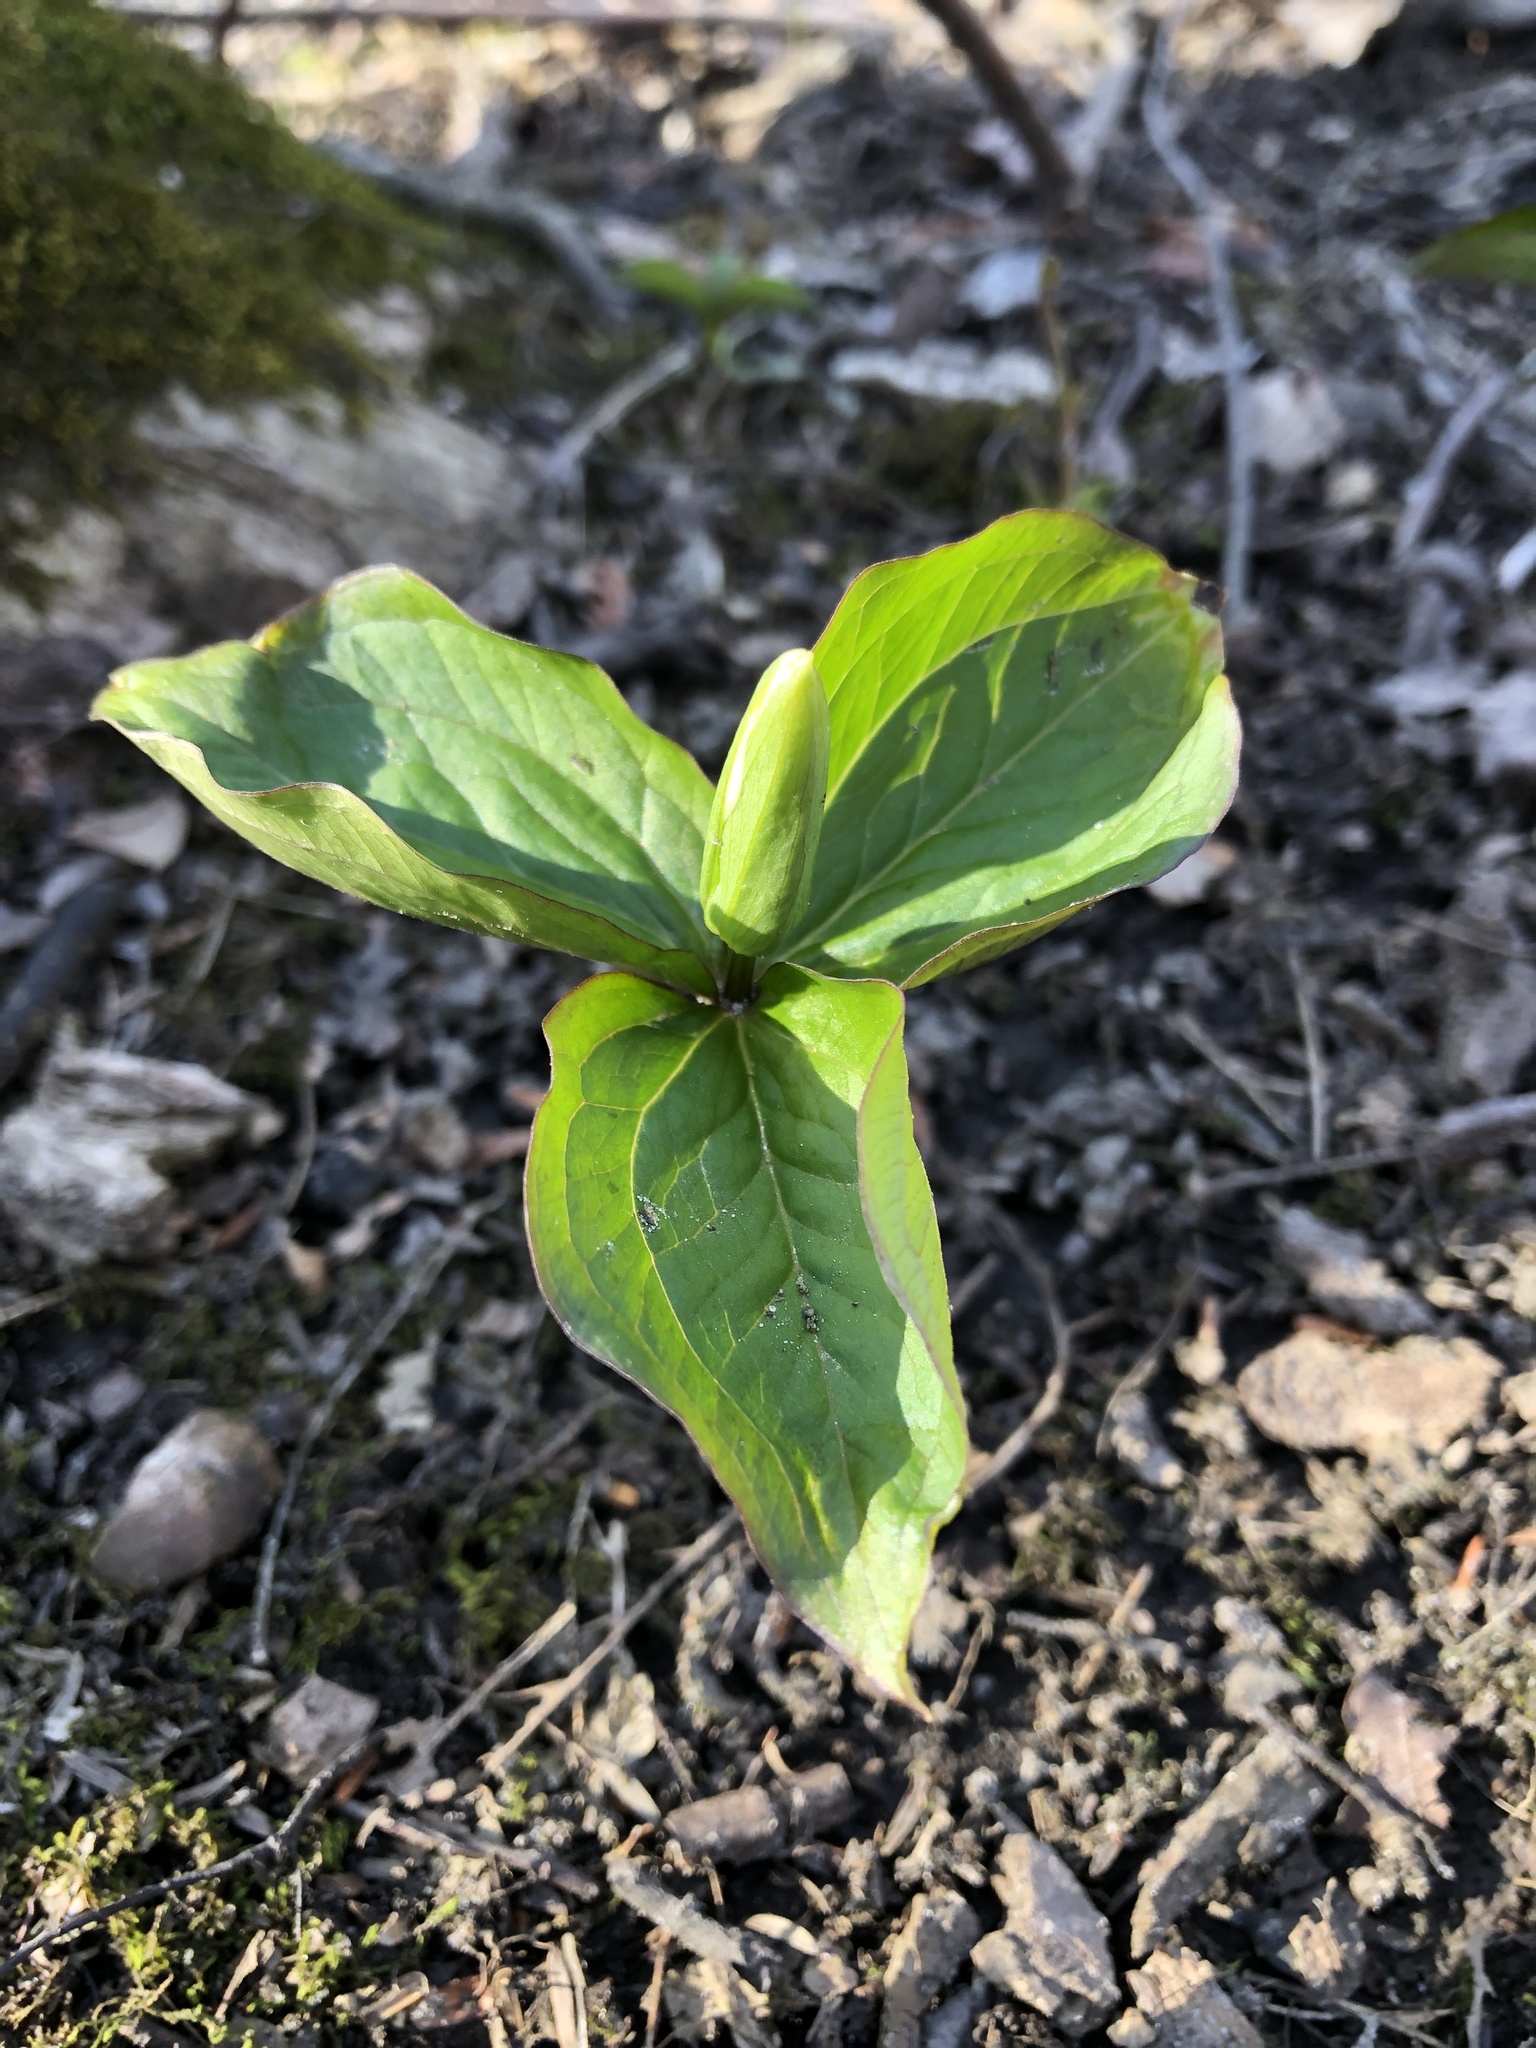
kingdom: Plantae
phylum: Tracheophyta
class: Liliopsida
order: Liliales
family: Melanthiaceae
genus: Trillium
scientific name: Trillium grandiflorum
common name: Great white trillium
